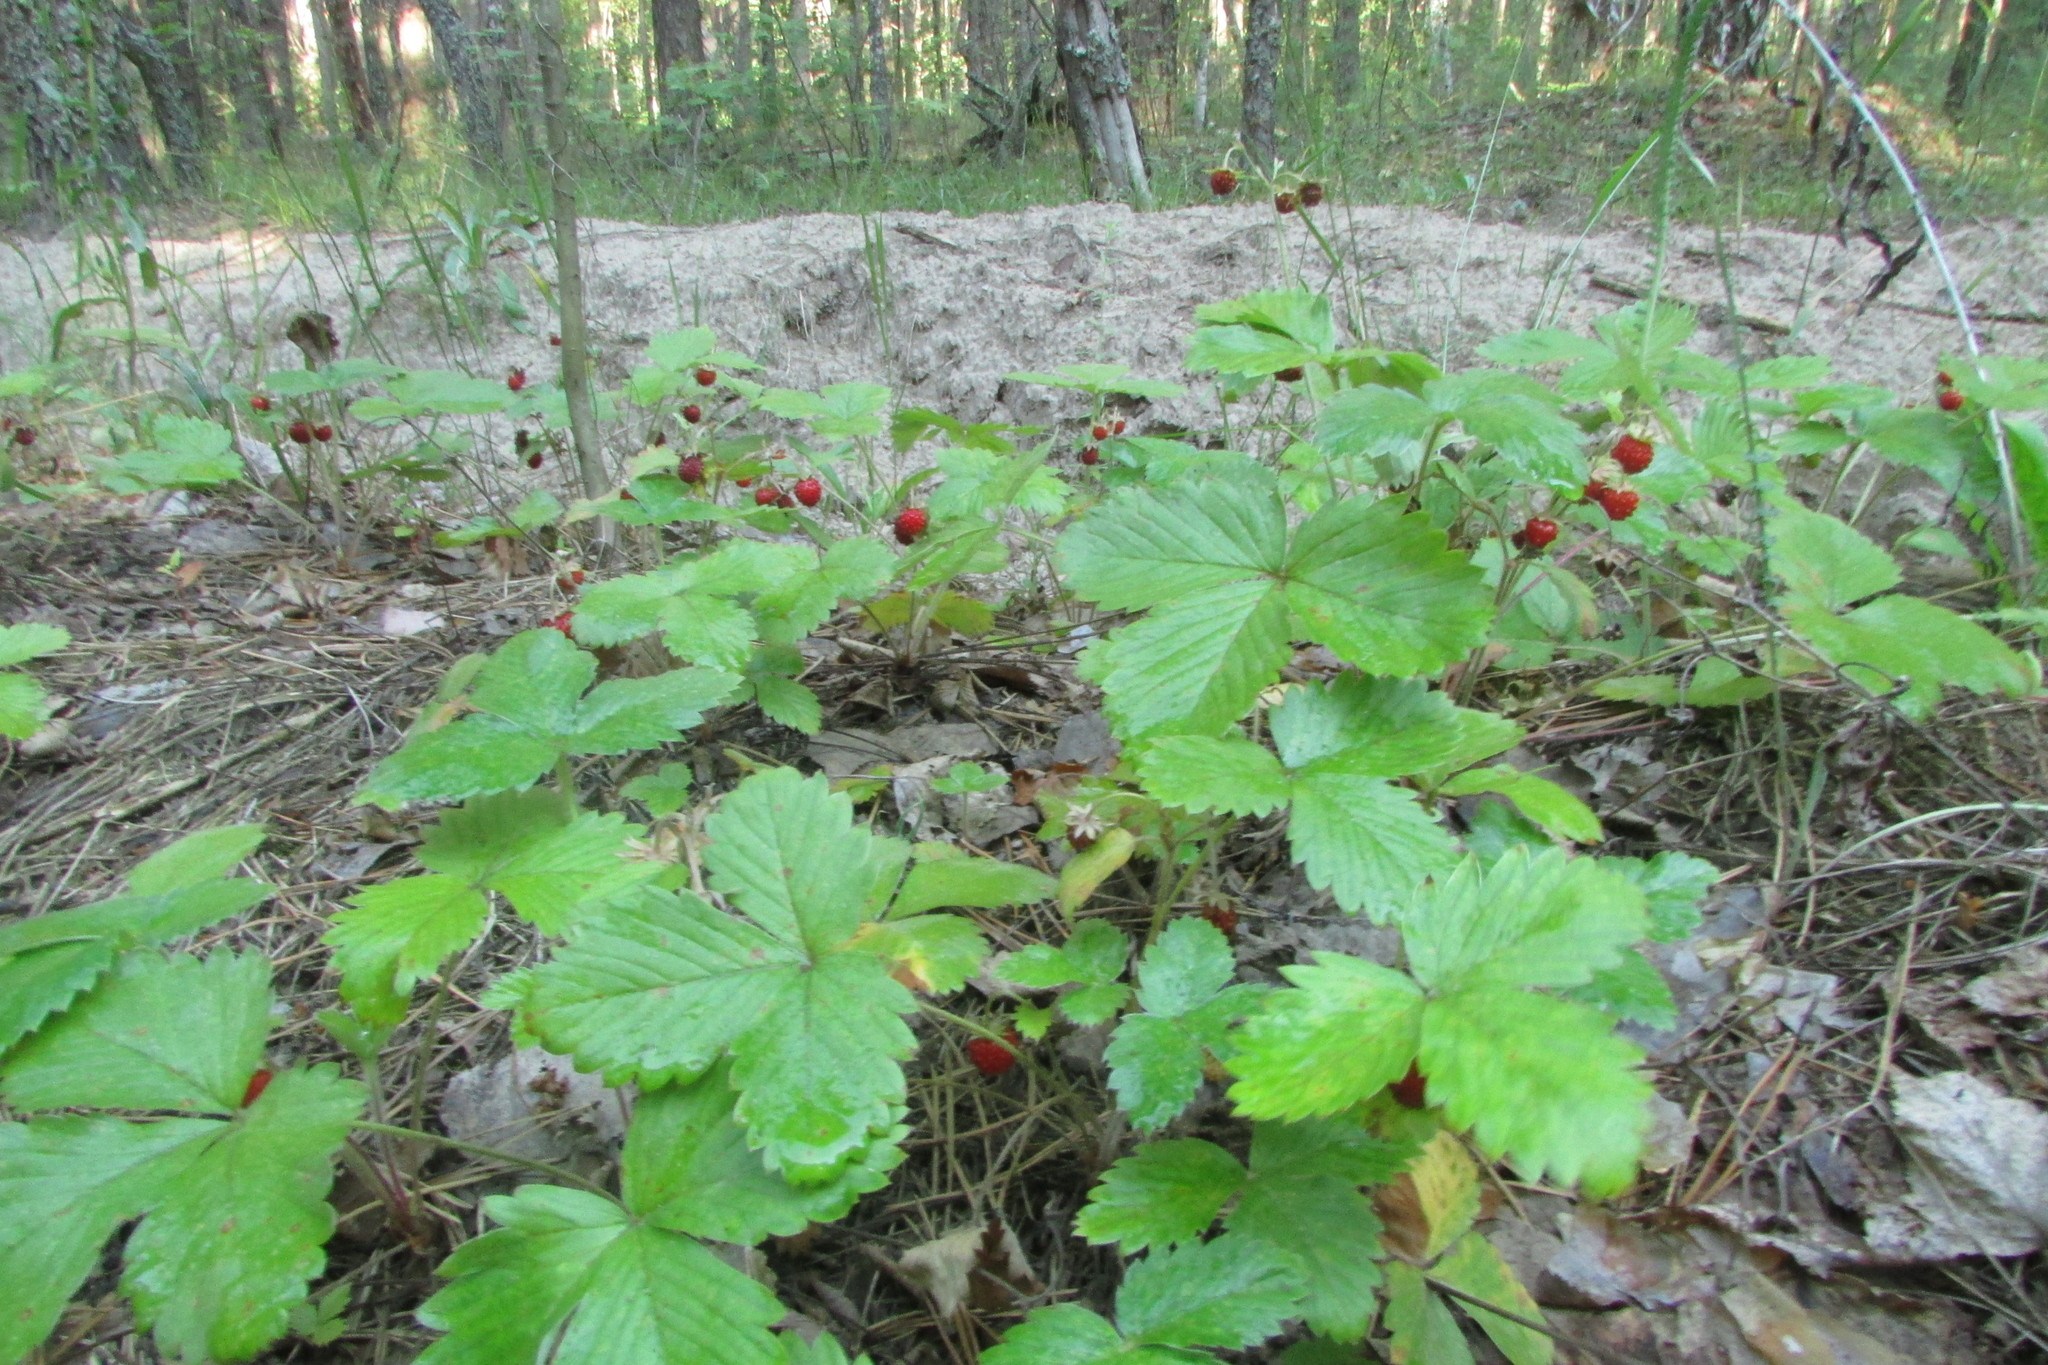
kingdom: Plantae
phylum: Tracheophyta
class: Magnoliopsida
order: Rosales
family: Rosaceae
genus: Fragaria
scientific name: Fragaria vesca
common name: Wild strawberry
